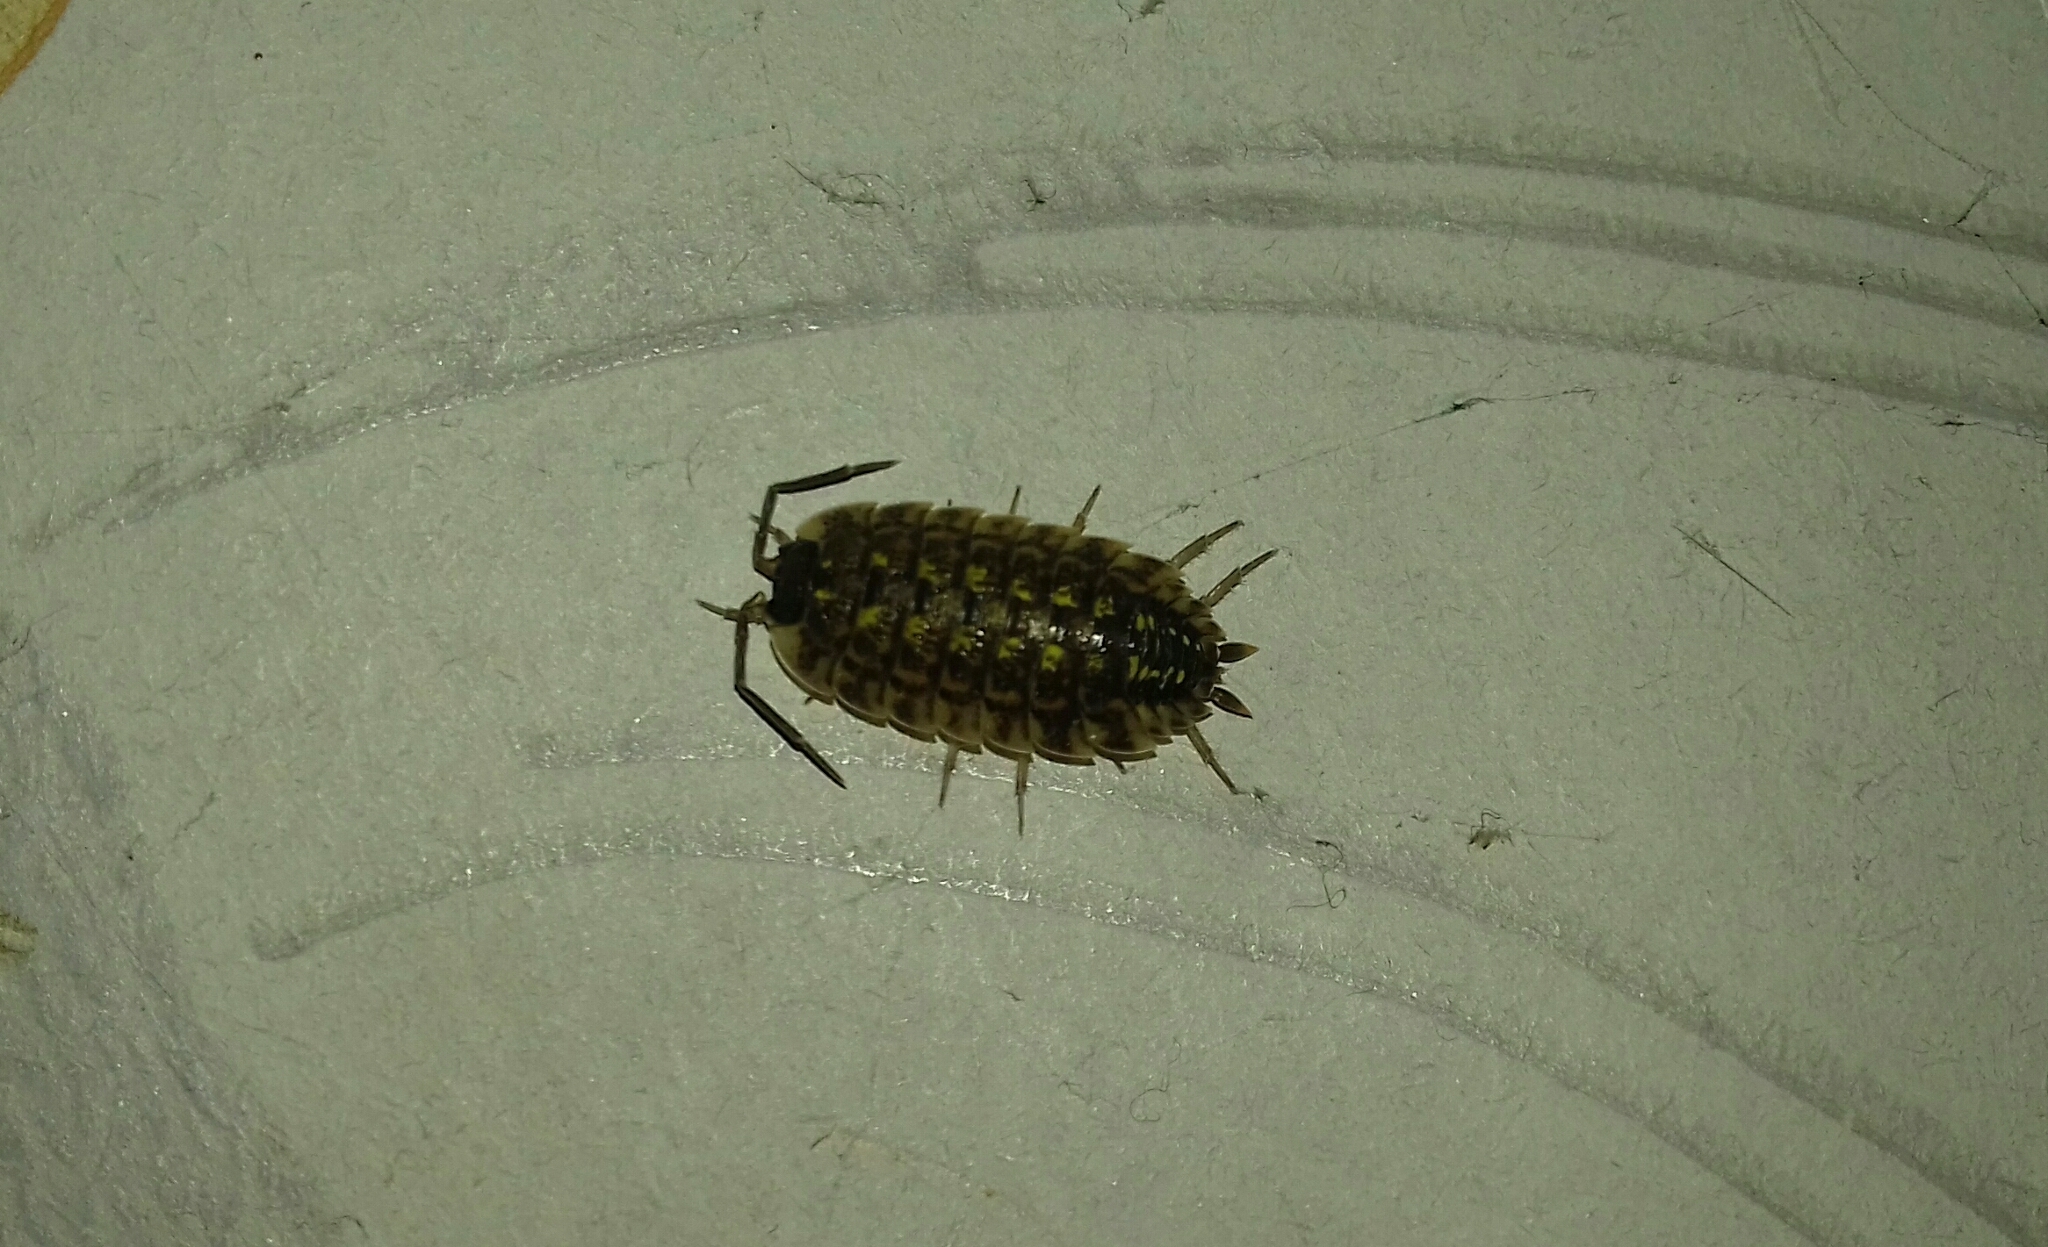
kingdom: Animalia
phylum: Arthropoda
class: Malacostraca
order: Isopoda
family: Porcellionidae
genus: Porcellio
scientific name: Porcellio spinicornis
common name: Painted woodlouse
